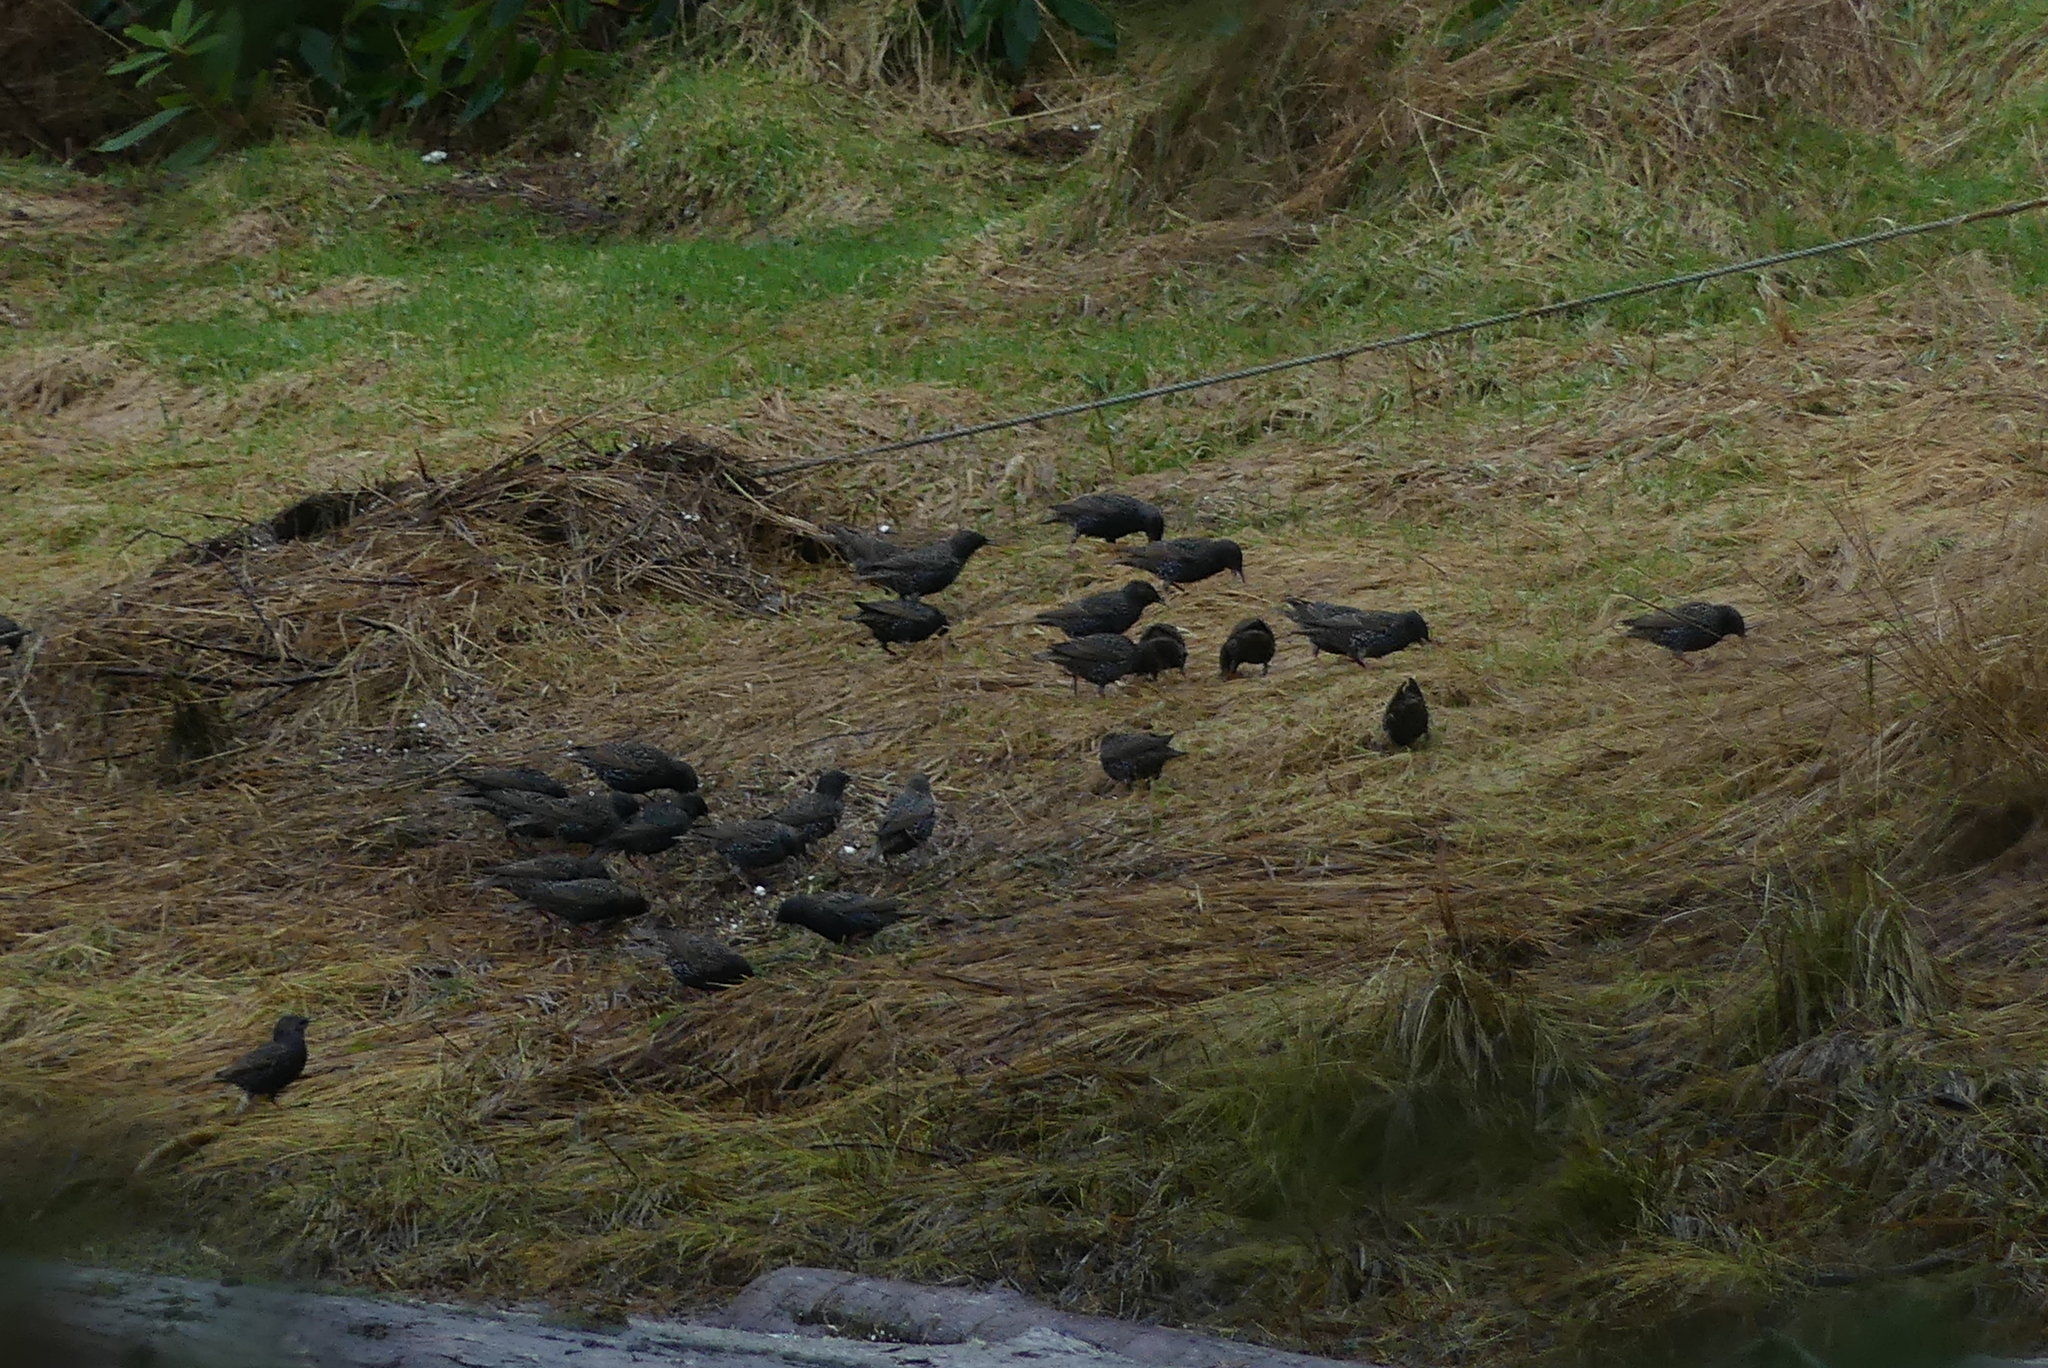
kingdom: Animalia
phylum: Chordata
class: Aves
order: Passeriformes
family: Sturnidae
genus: Sturnus
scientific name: Sturnus vulgaris
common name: Common starling
